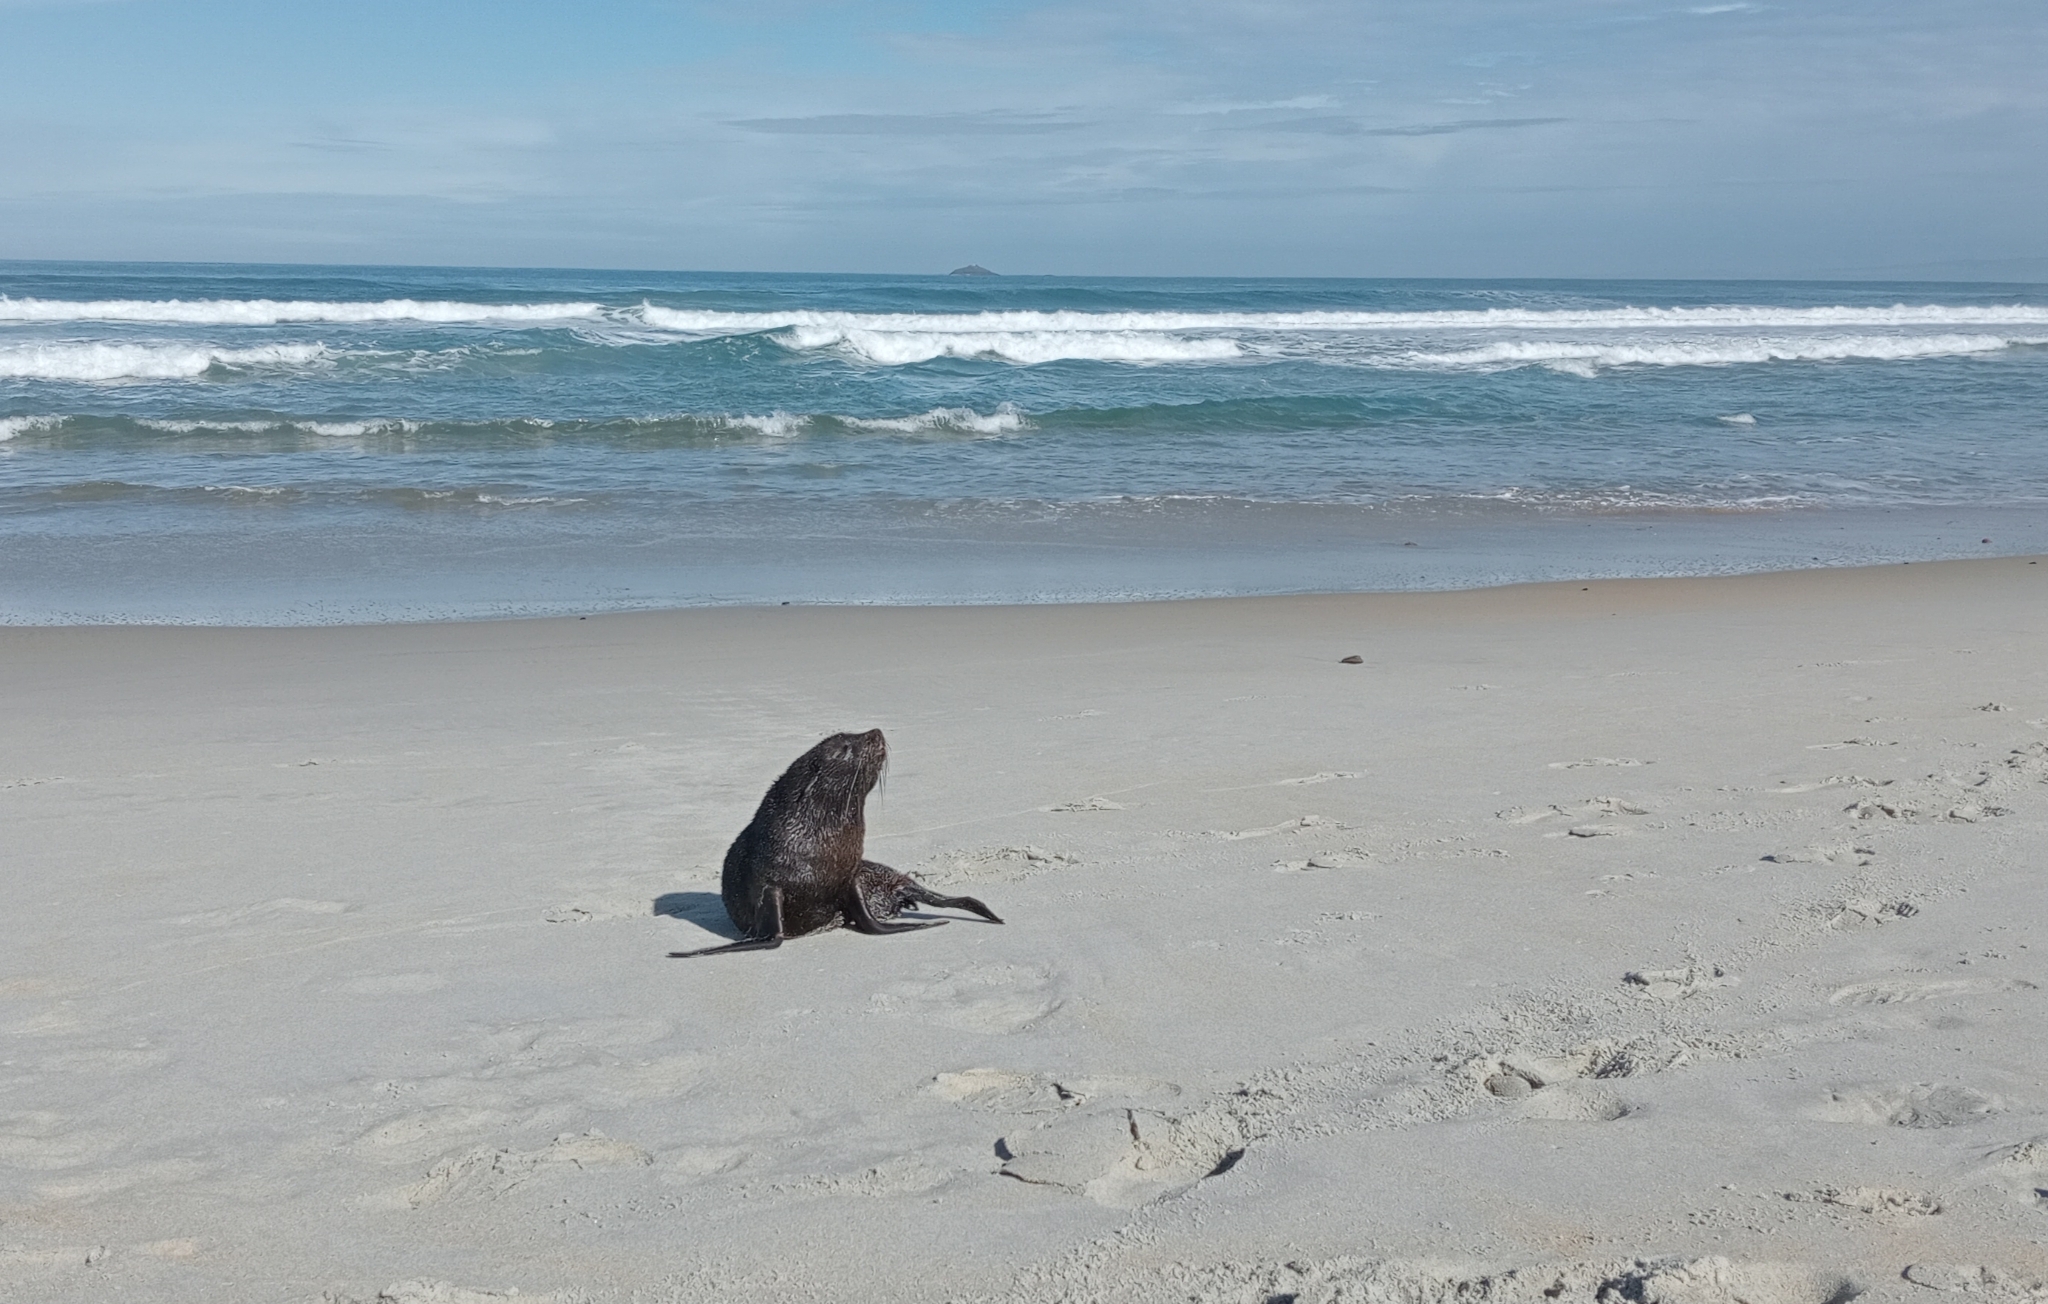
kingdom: Animalia
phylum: Chordata
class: Mammalia
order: Carnivora
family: Otariidae
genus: Arctocephalus
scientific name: Arctocephalus forsteri
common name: New zealand fur seal
